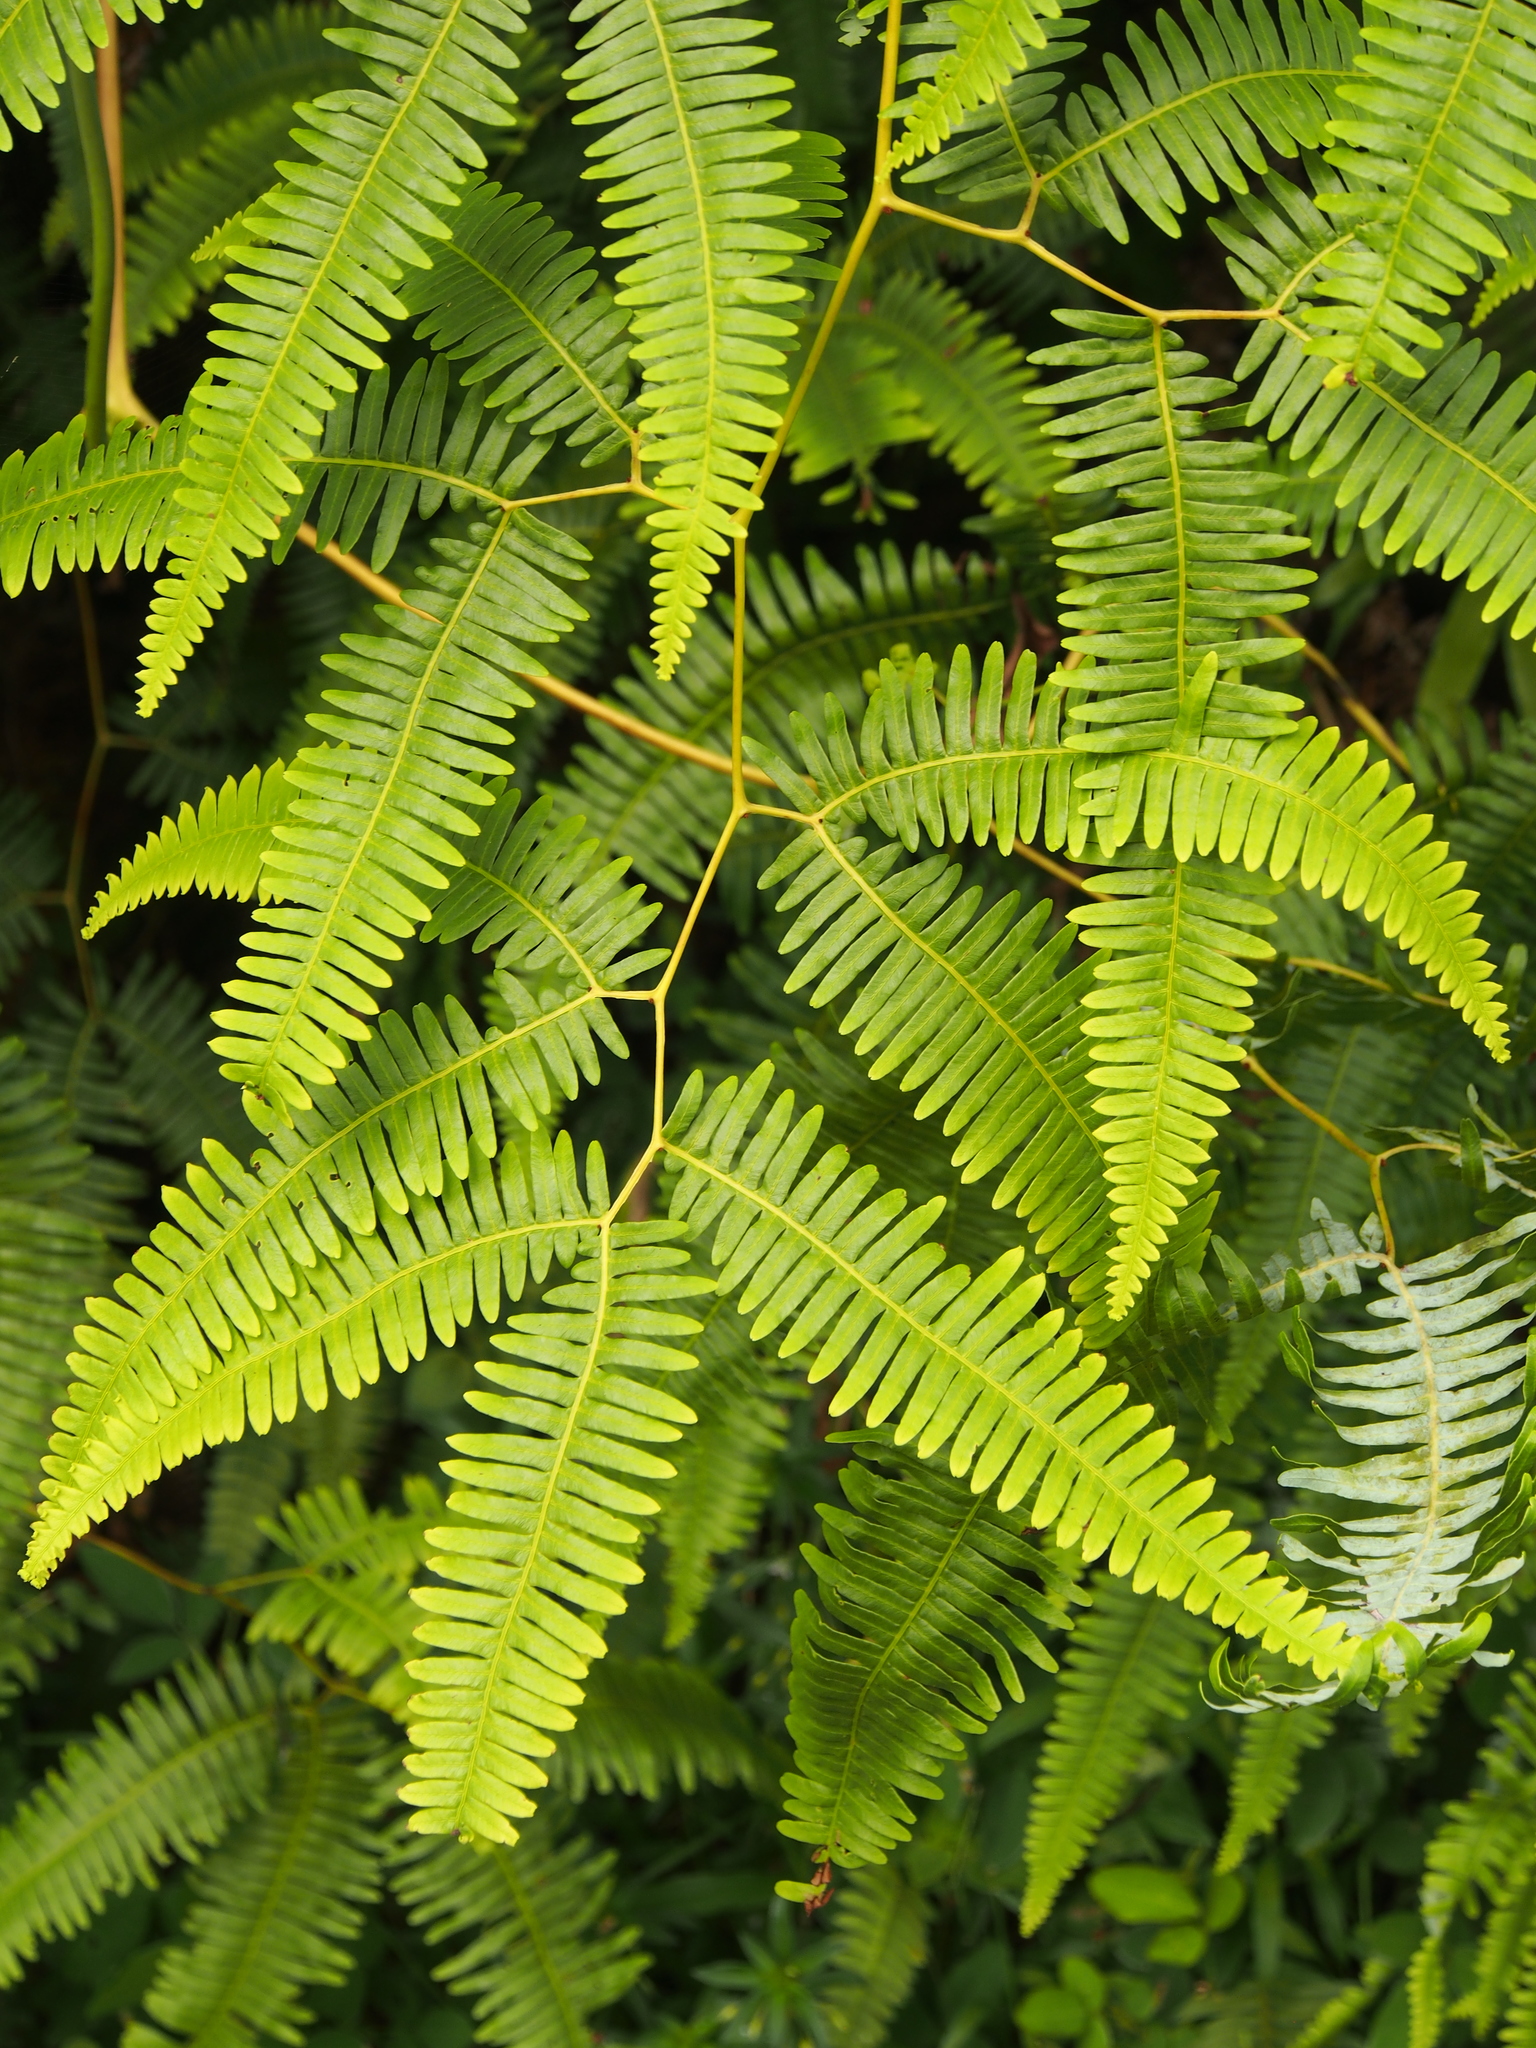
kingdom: Plantae
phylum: Tracheophyta
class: Polypodiopsida
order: Gleicheniales
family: Gleicheniaceae
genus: Gleichenella
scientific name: Gleichenella pectinata
